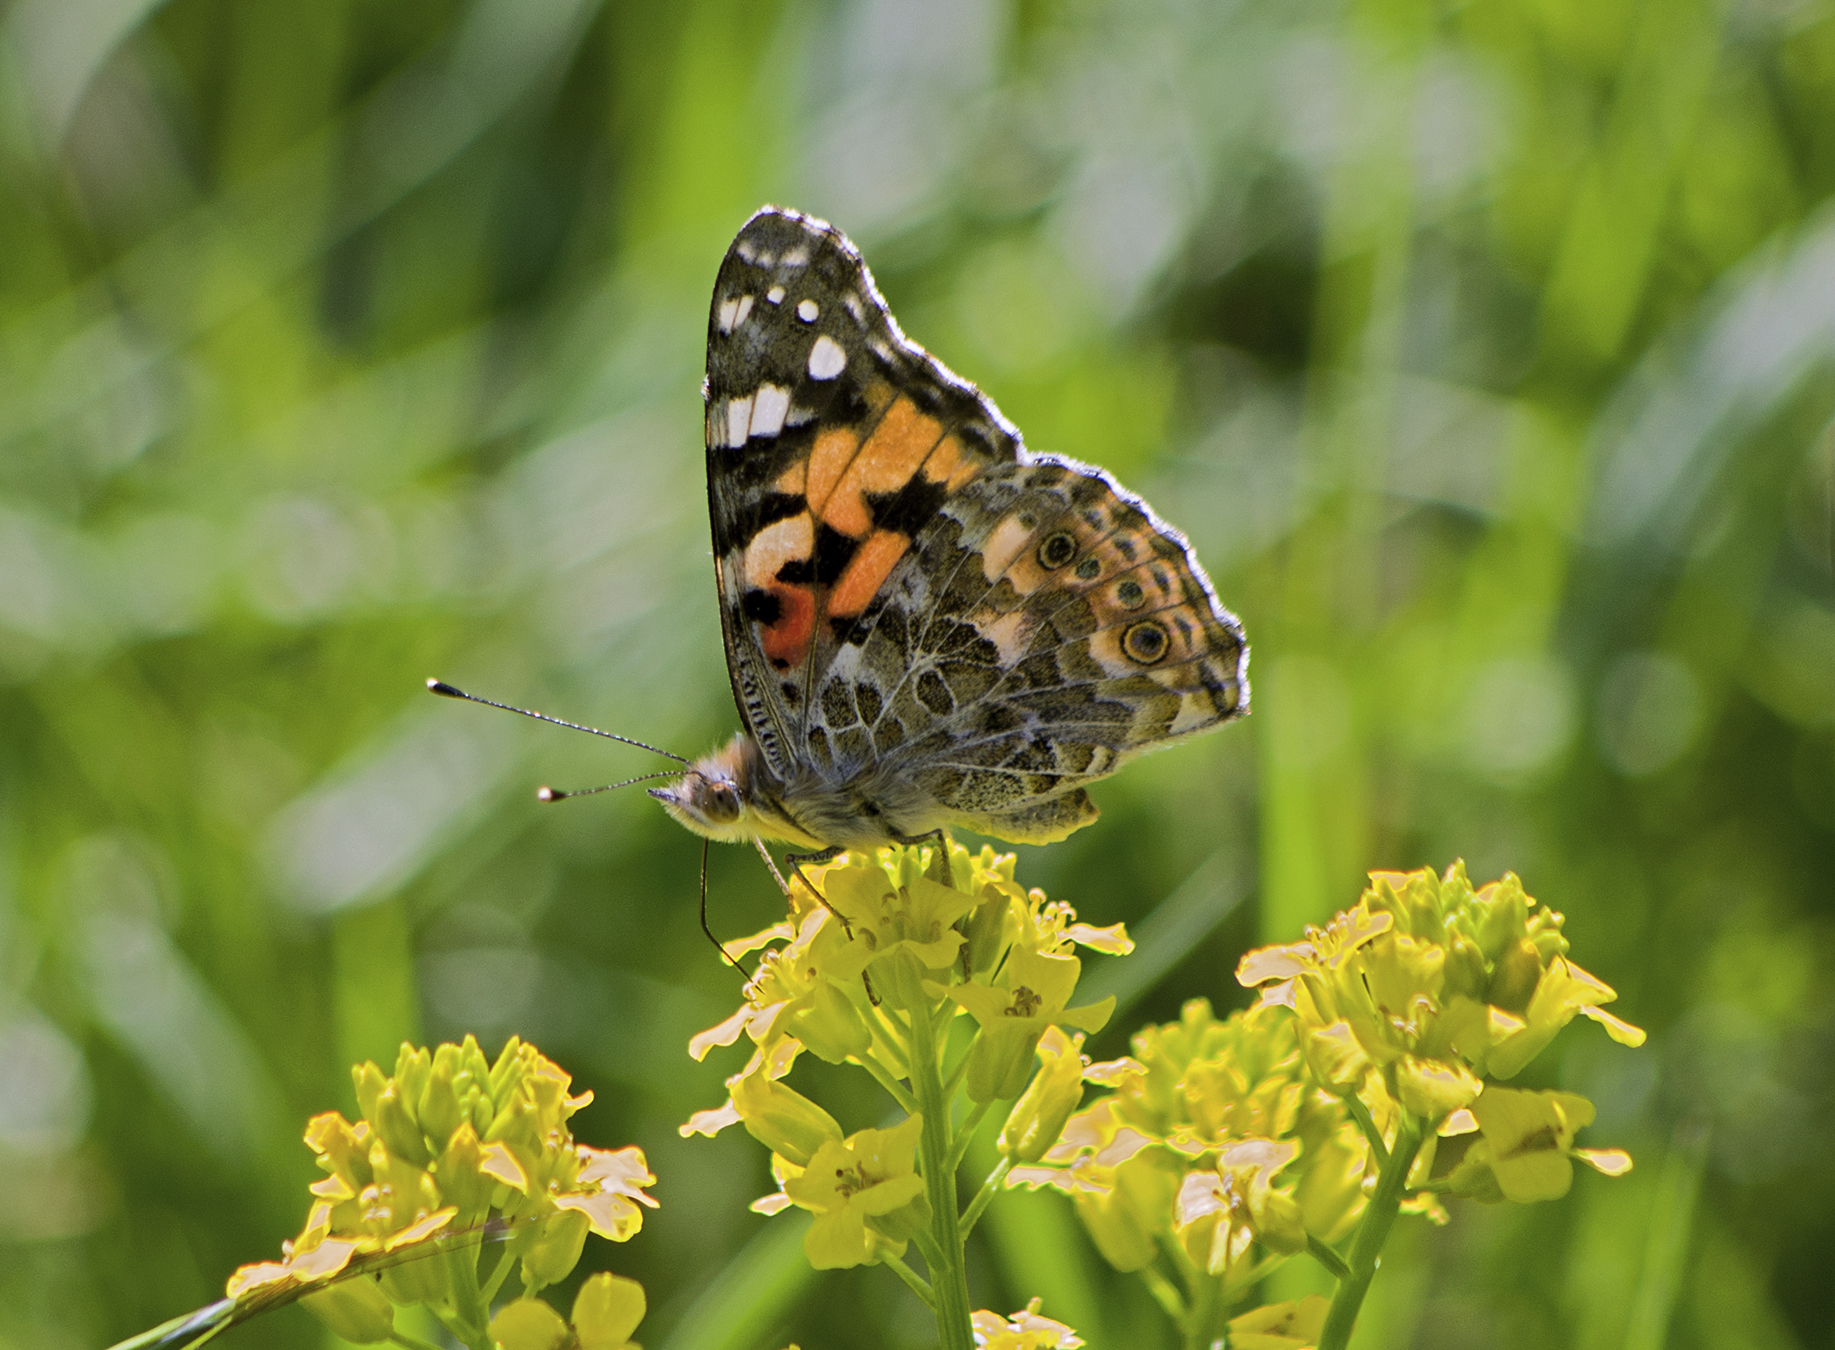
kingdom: Animalia
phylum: Arthropoda
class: Insecta
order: Lepidoptera
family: Nymphalidae
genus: Vanessa
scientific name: Vanessa cardui
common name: Painted lady
